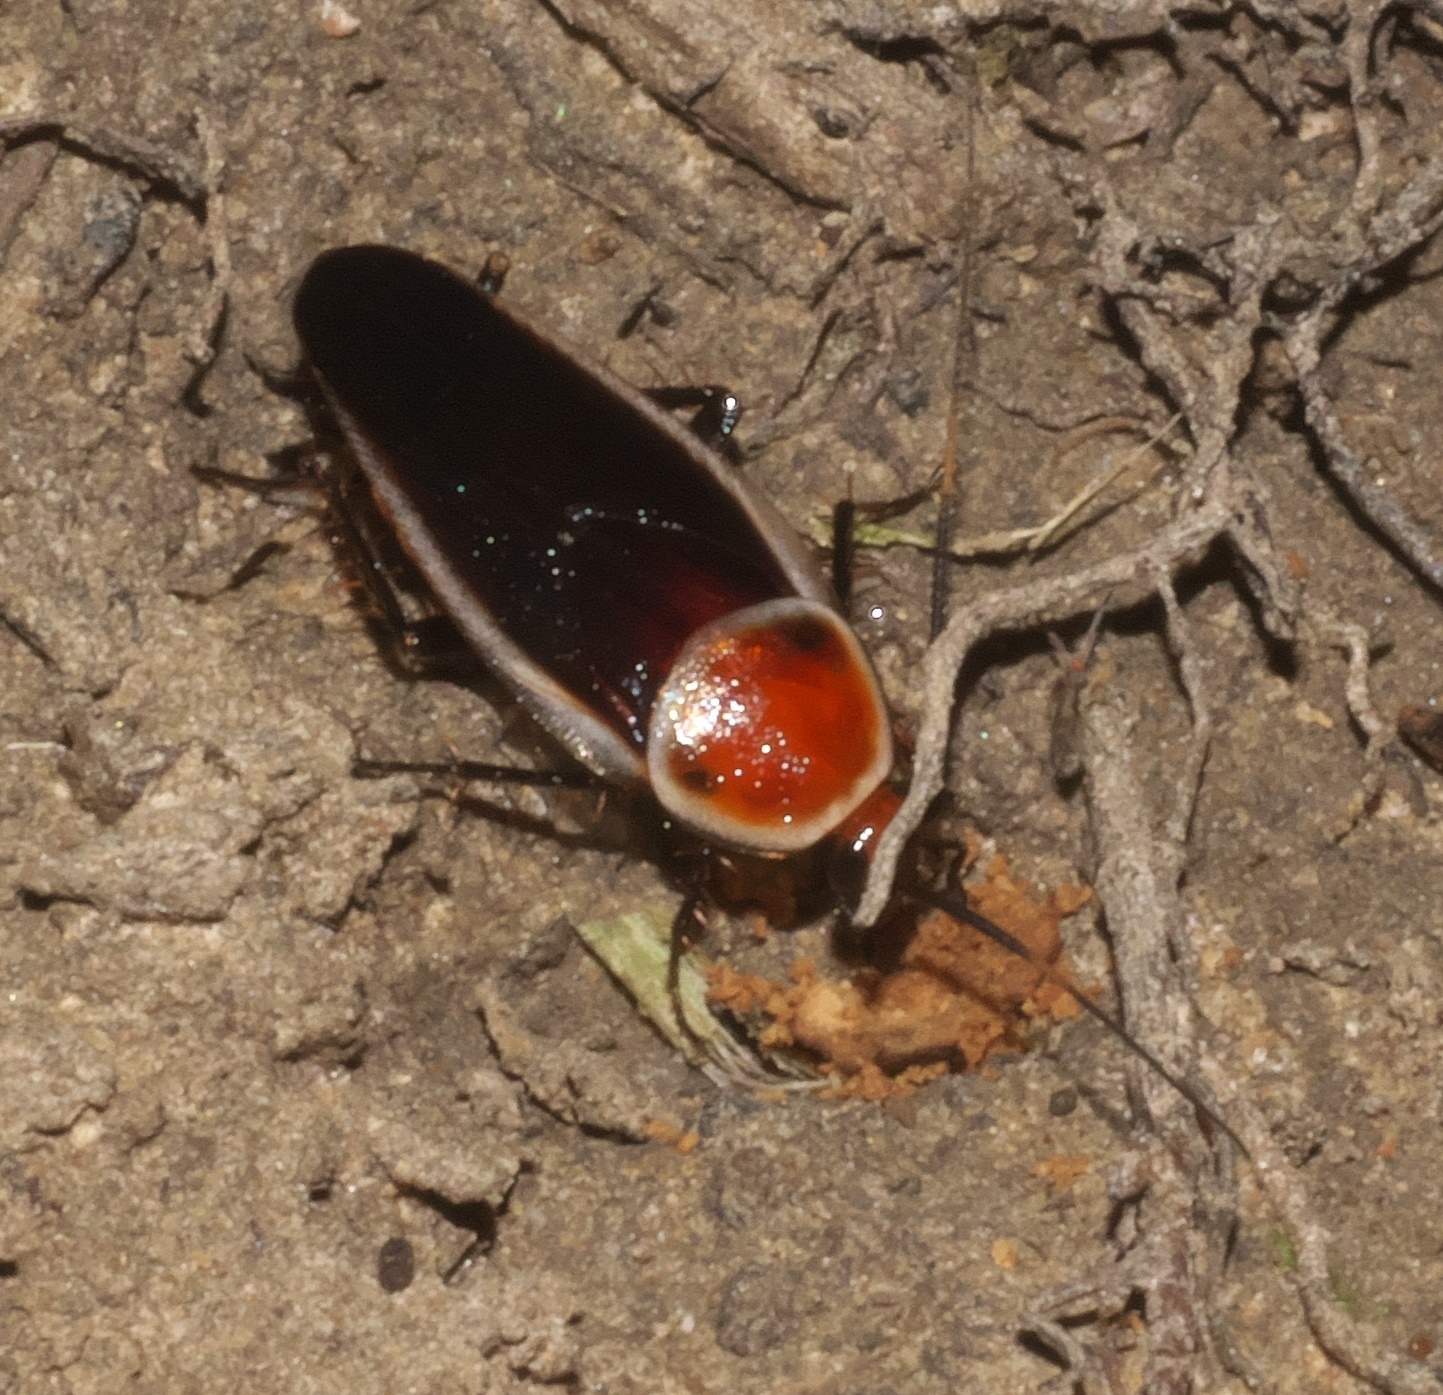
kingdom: Animalia
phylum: Arthropoda
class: Insecta
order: Blattodea
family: Ectobiidae
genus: Pseudomops
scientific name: Pseudomops septentrionalis
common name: Pale-bordered field cockroach
